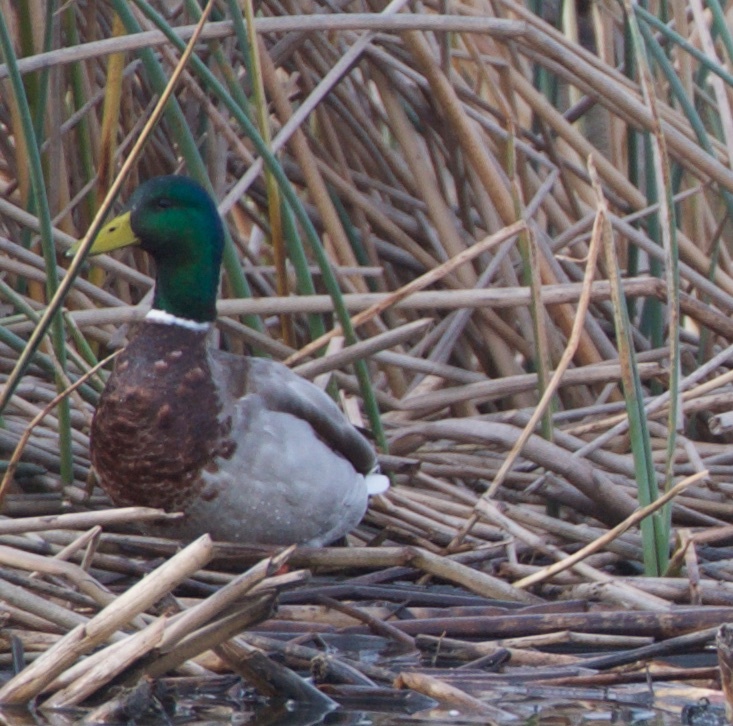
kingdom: Animalia
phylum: Chordata
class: Aves
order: Anseriformes
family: Anatidae
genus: Anas
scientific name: Anas platyrhynchos
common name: Mallard
